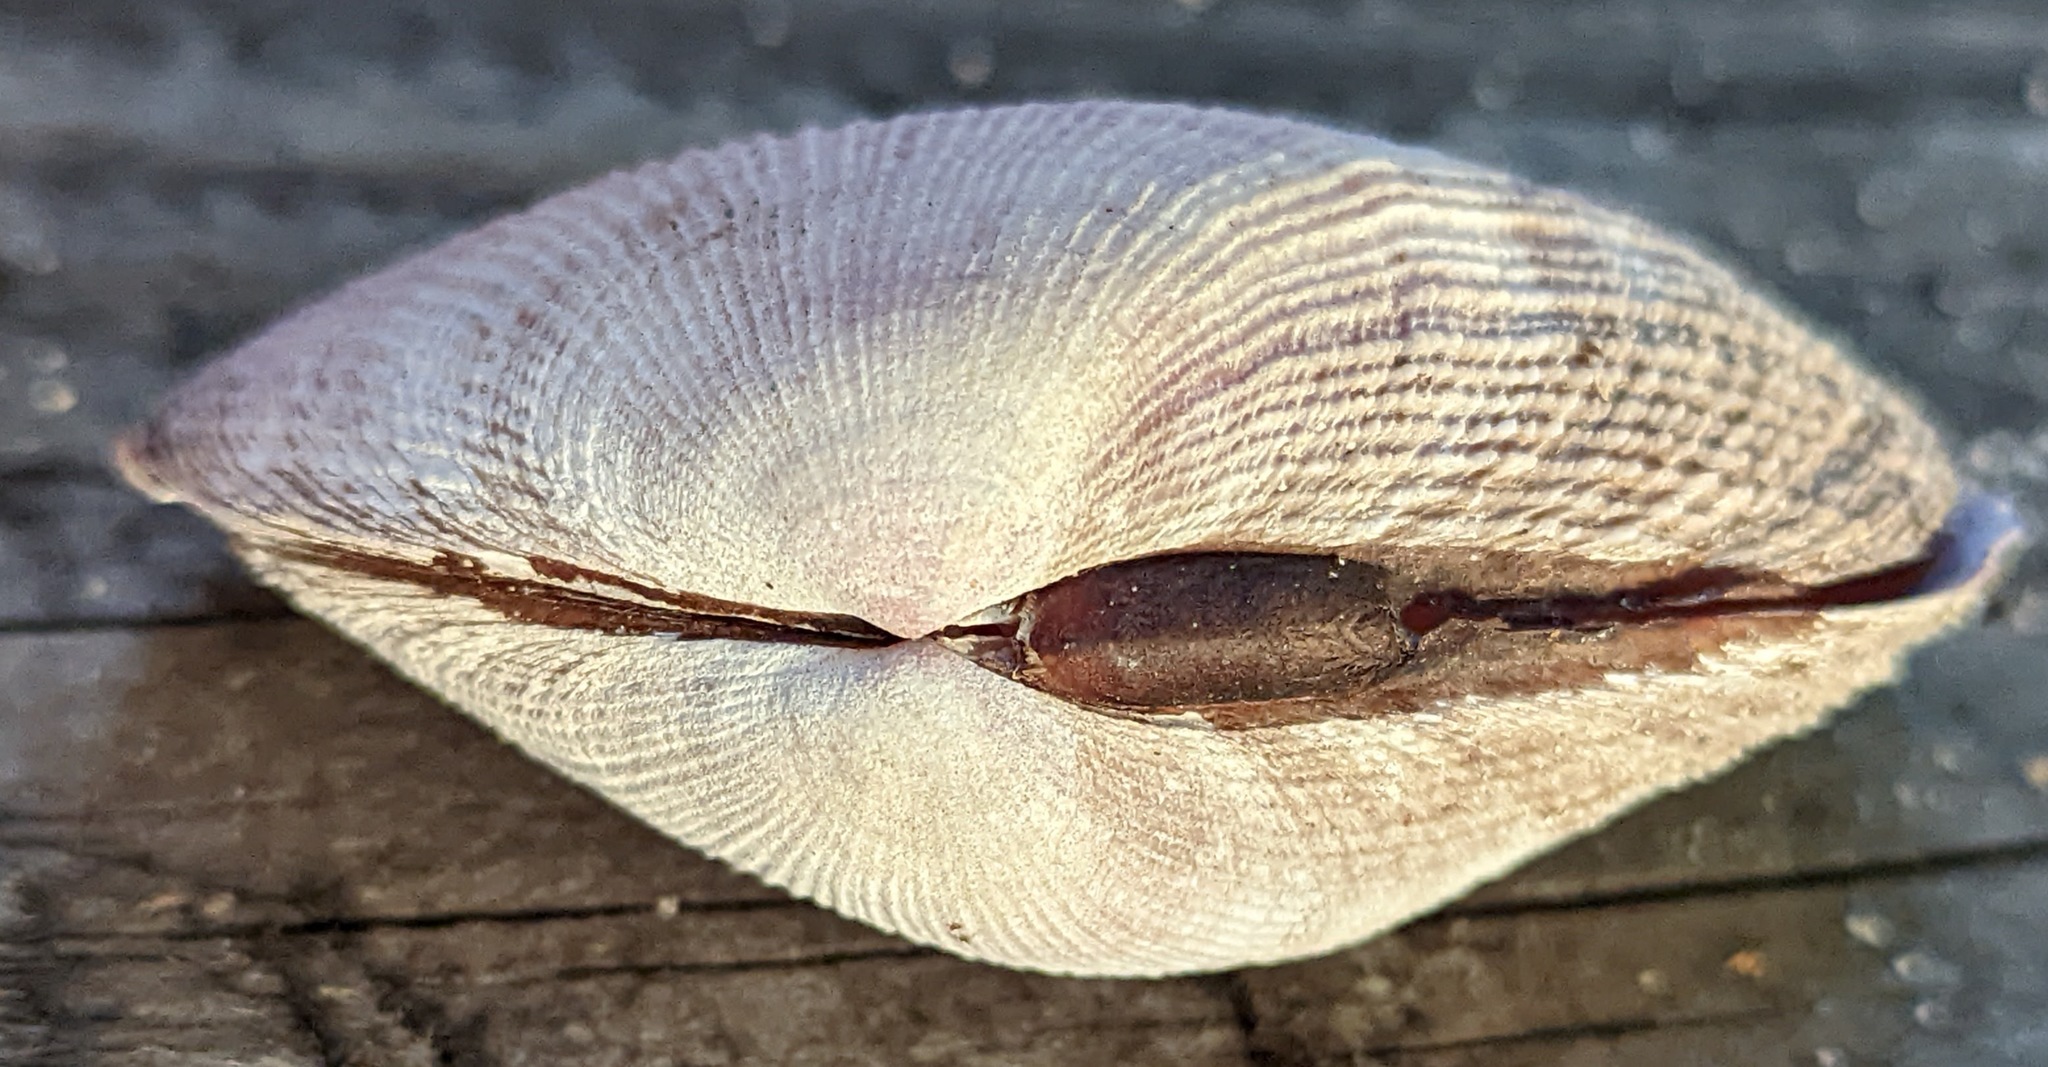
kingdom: Animalia
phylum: Mollusca
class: Bivalvia
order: Cardiida
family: Psammobiidae
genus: Asaphis
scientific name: Asaphis violascens
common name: Pacific asaphis
